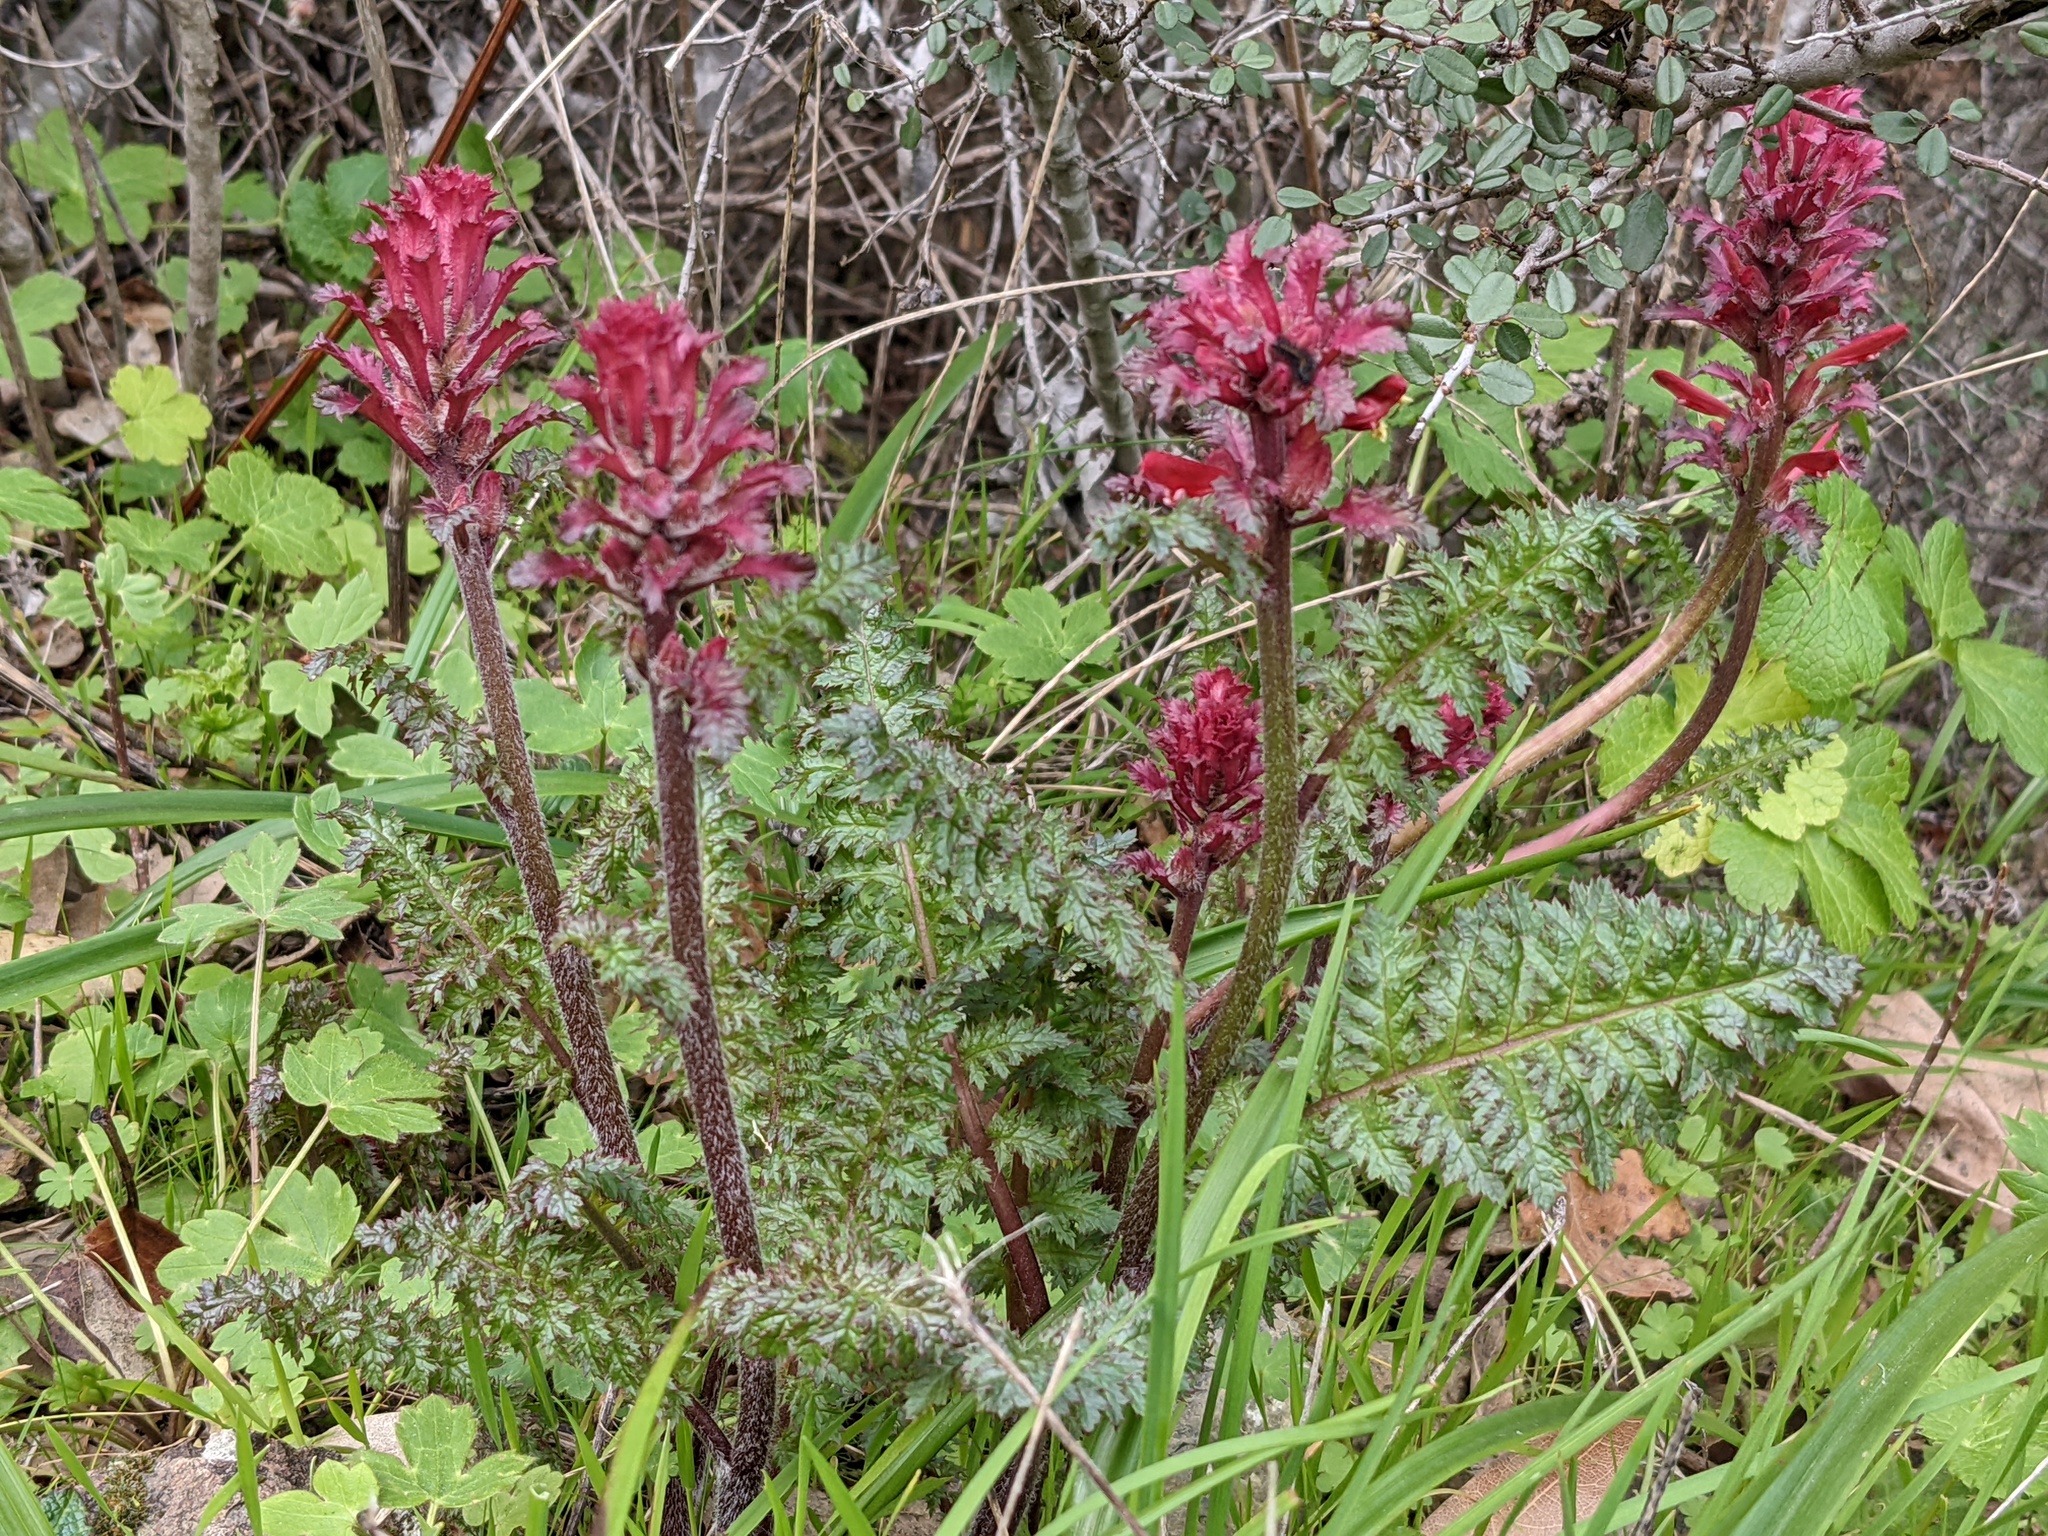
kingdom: Plantae
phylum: Tracheophyta
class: Magnoliopsida
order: Lamiales
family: Orobanchaceae
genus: Pedicularis
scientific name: Pedicularis densiflora
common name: Indian warrior
